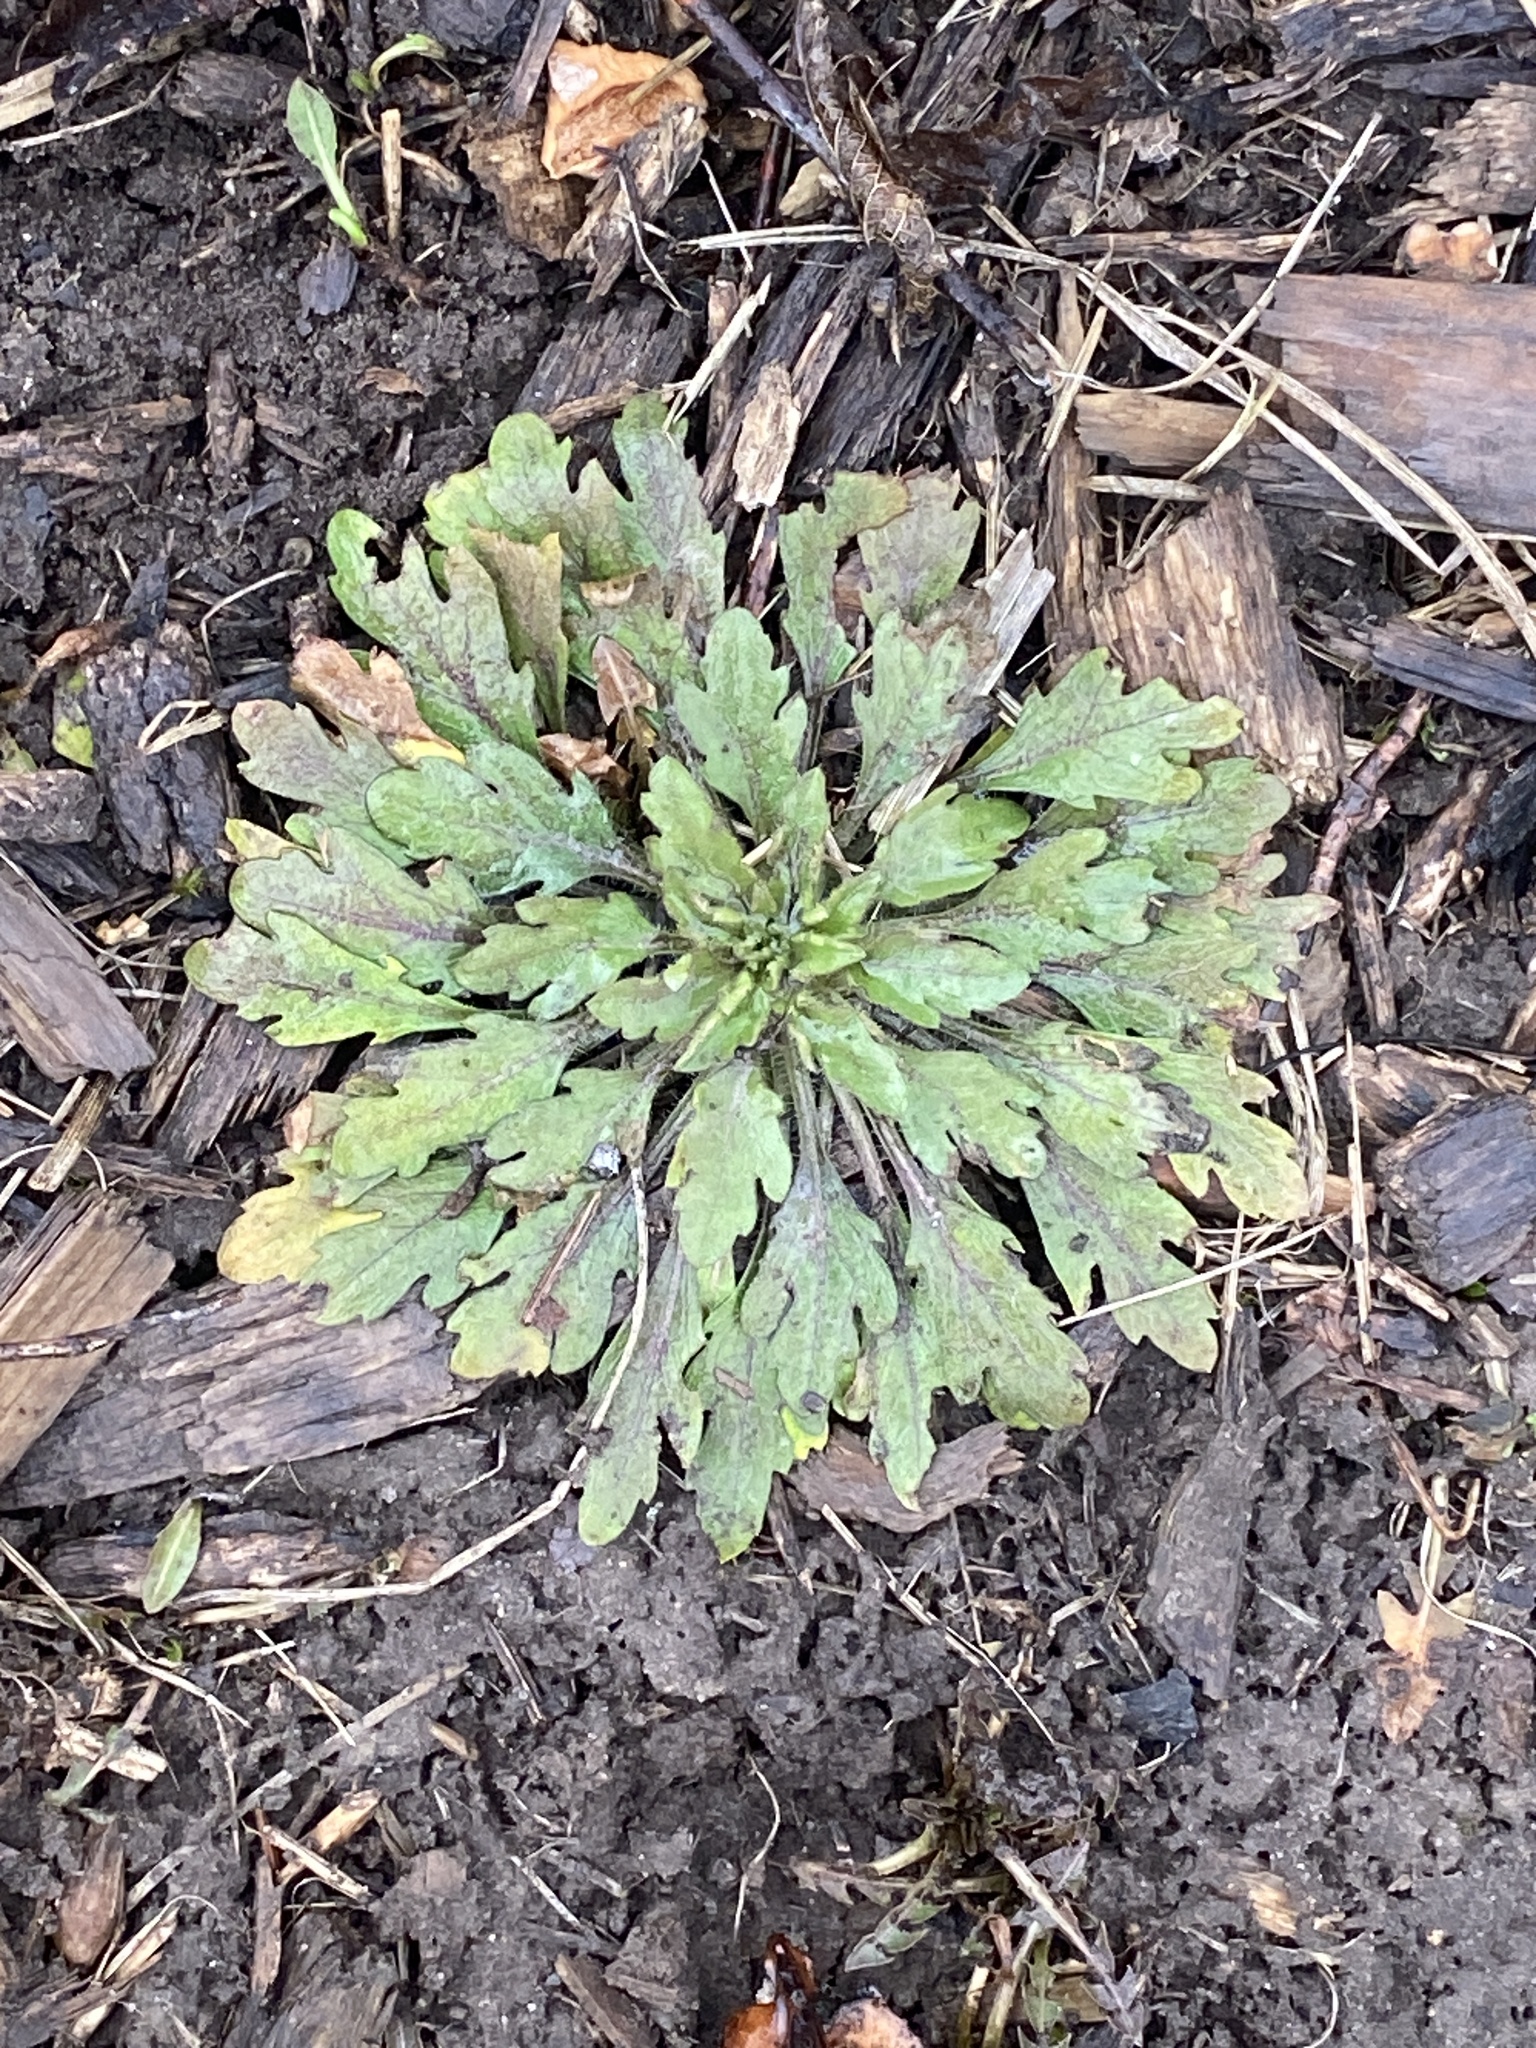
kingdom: Plantae
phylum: Tracheophyta
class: Magnoliopsida
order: Asterales
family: Asteraceae
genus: Erigeron
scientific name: Erigeron canadensis
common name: Canadian fleabane
